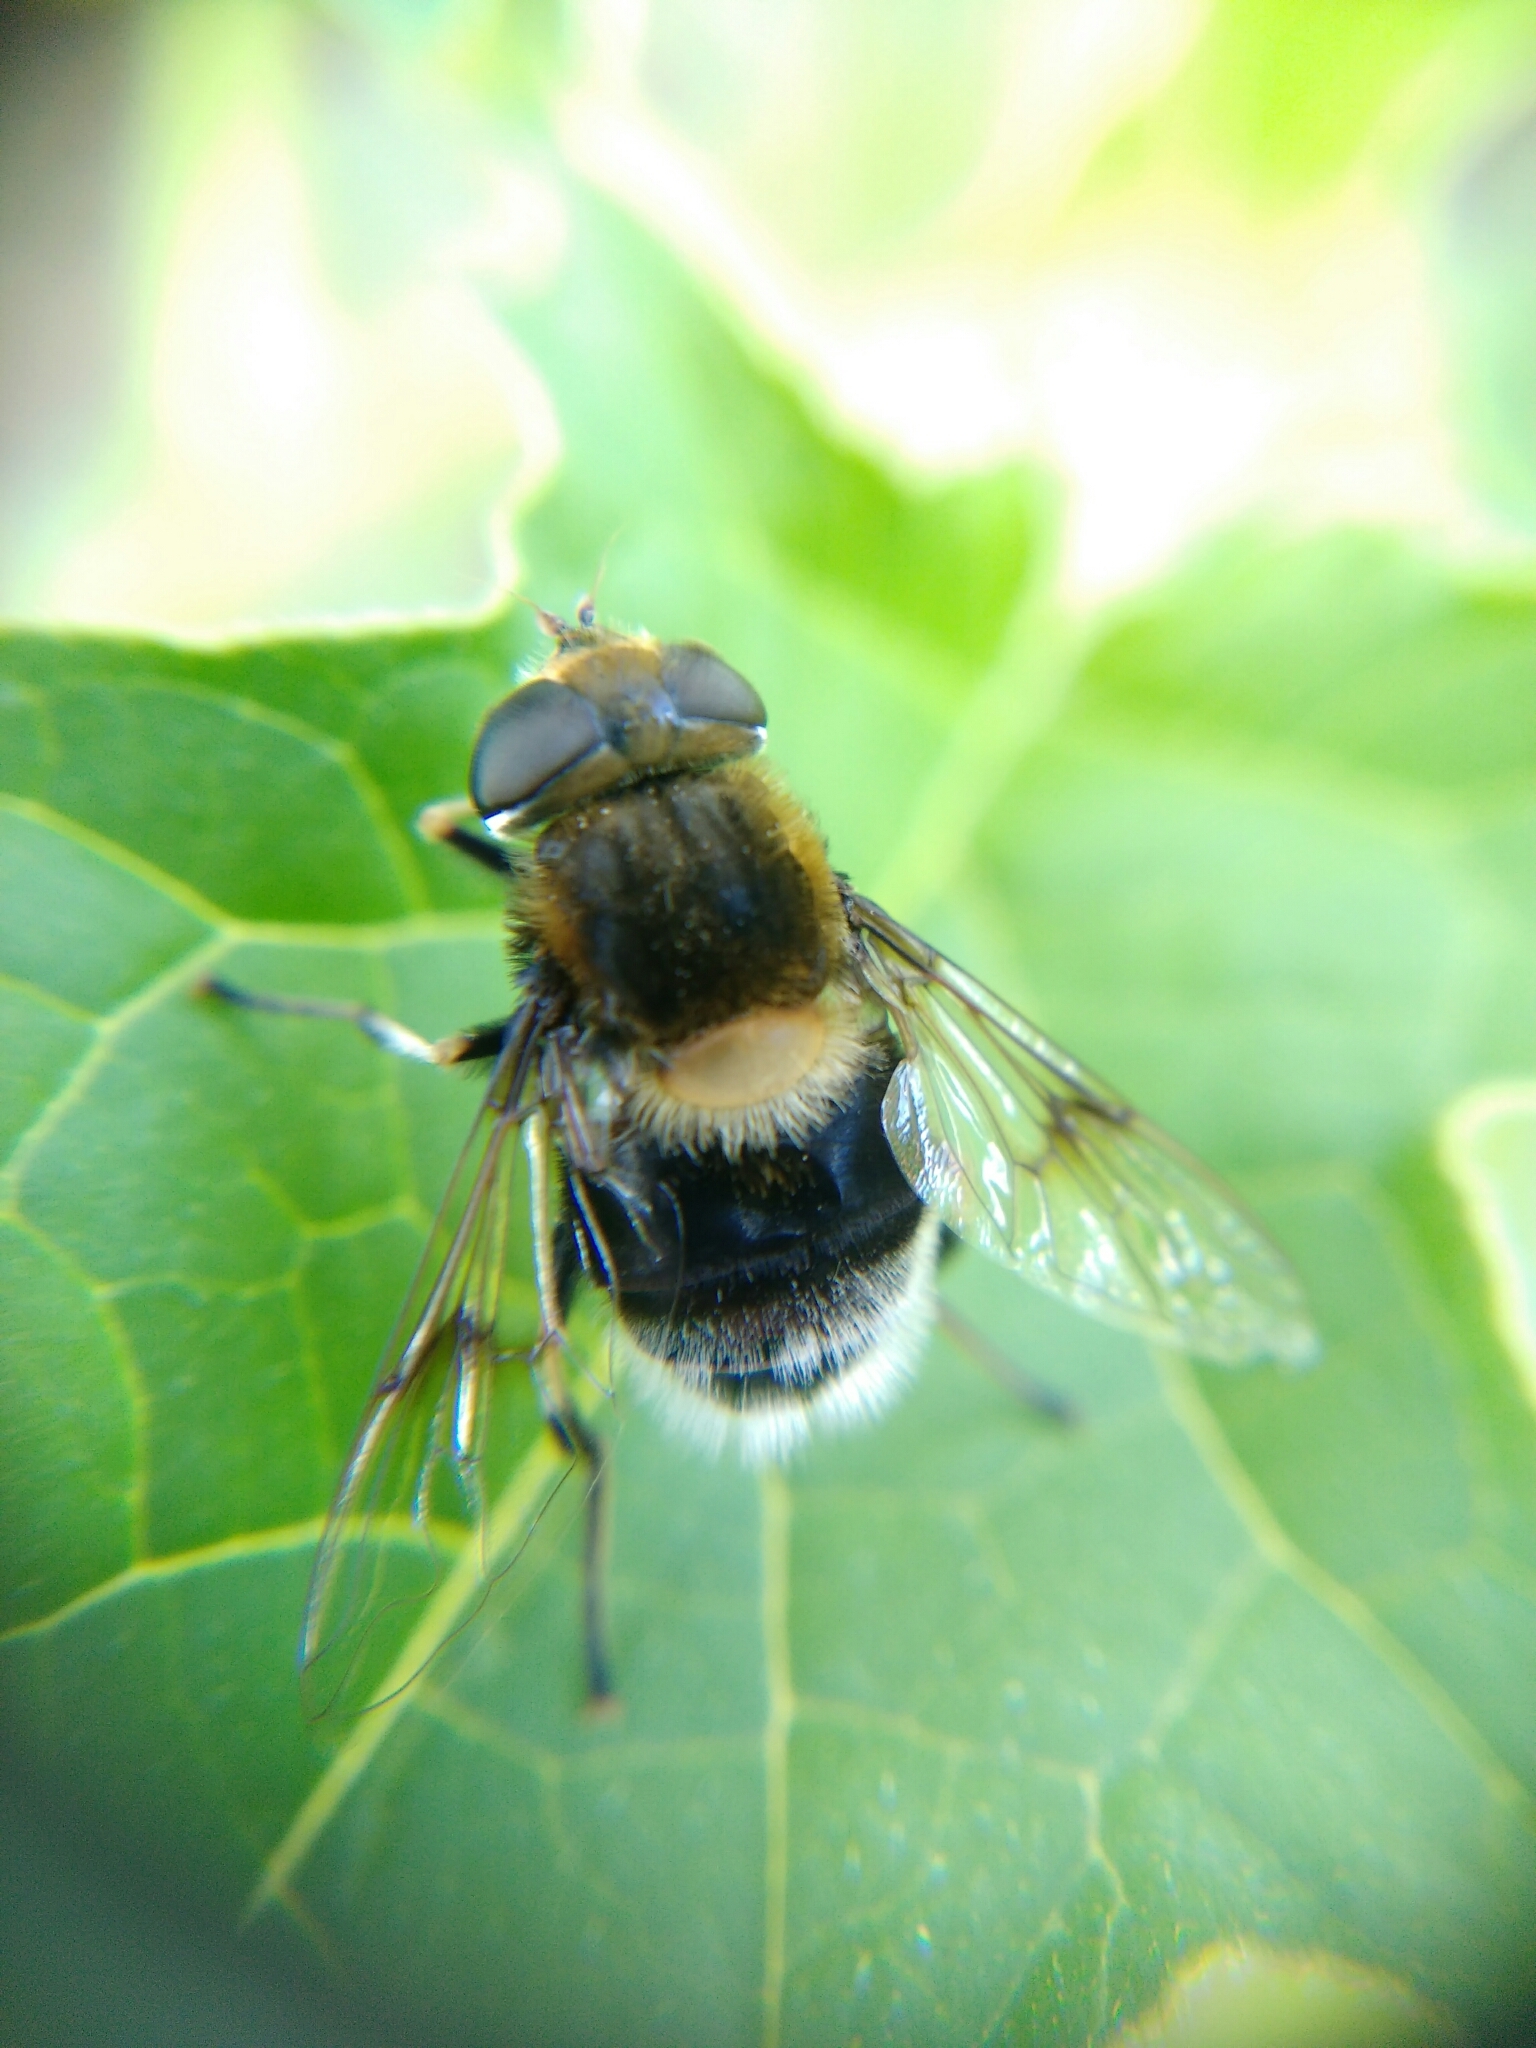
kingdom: Animalia
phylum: Arthropoda
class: Insecta
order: Diptera
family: Syrphidae
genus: Eristalis
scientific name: Eristalis intricaria
